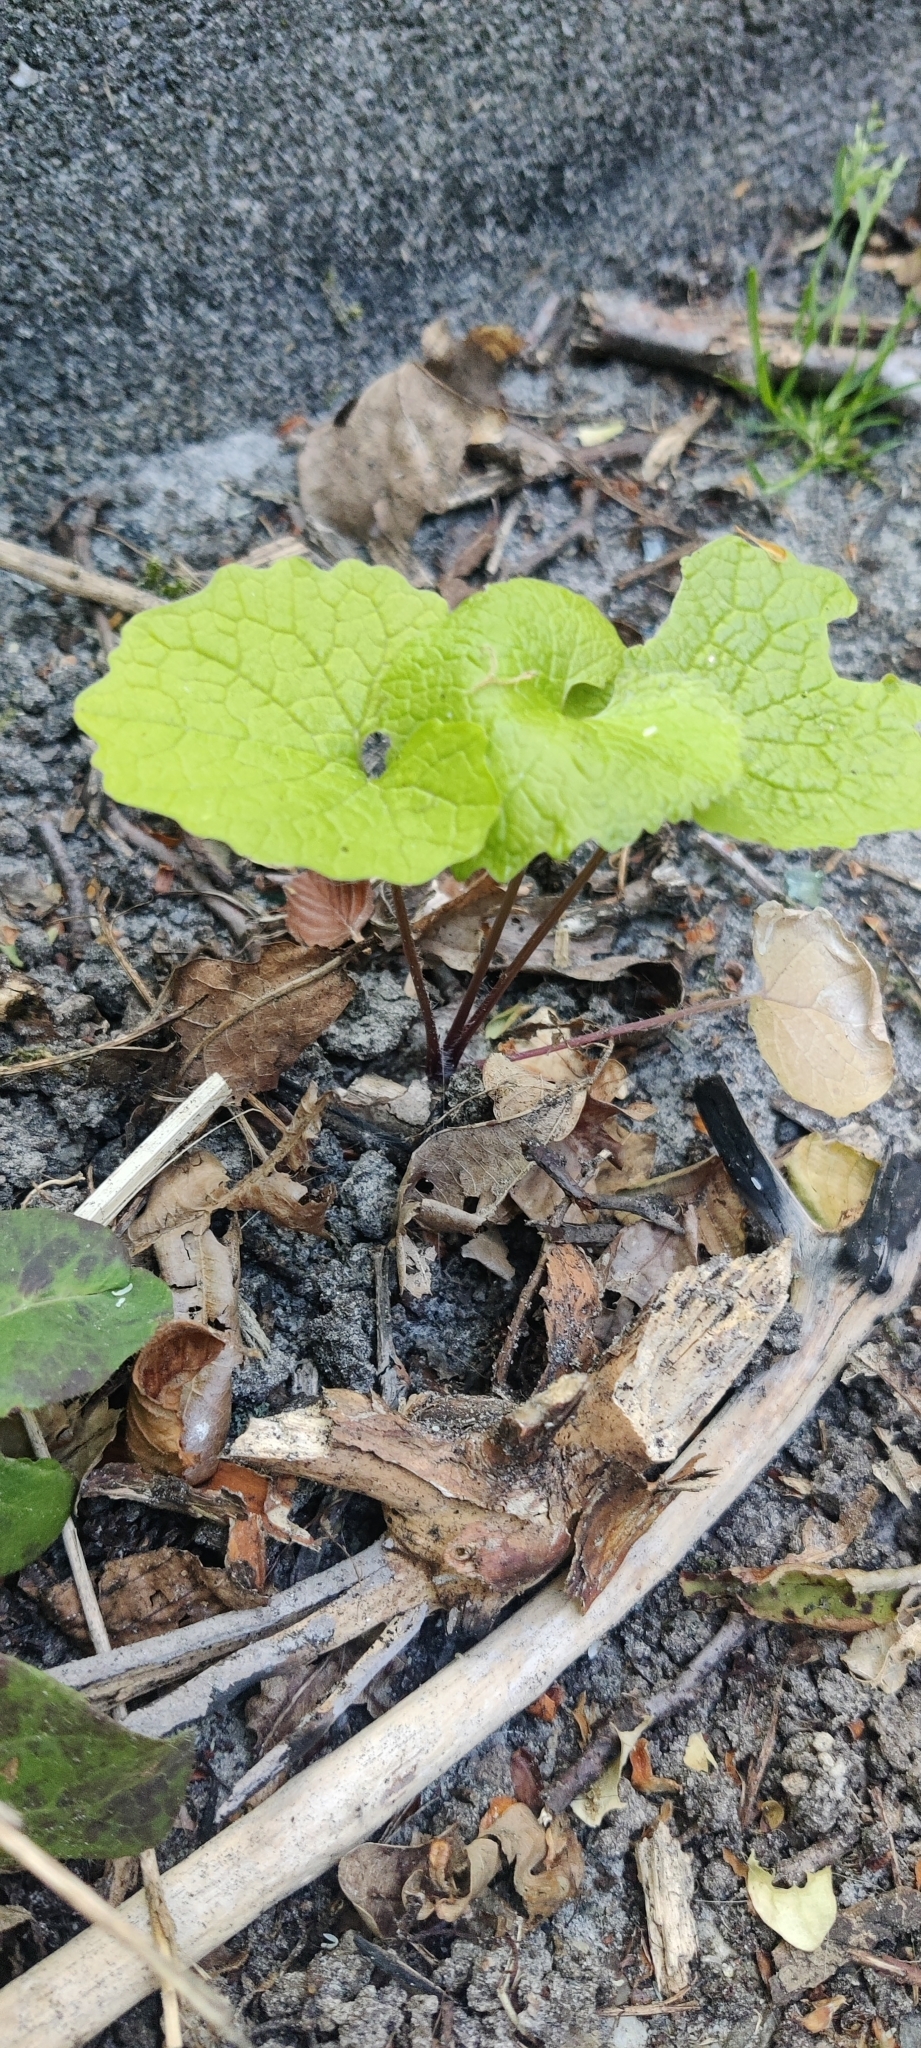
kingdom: Plantae
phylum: Tracheophyta
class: Magnoliopsida
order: Brassicales
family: Brassicaceae
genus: Alliaria
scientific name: Alliaria petiolata
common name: Garlic mustard
